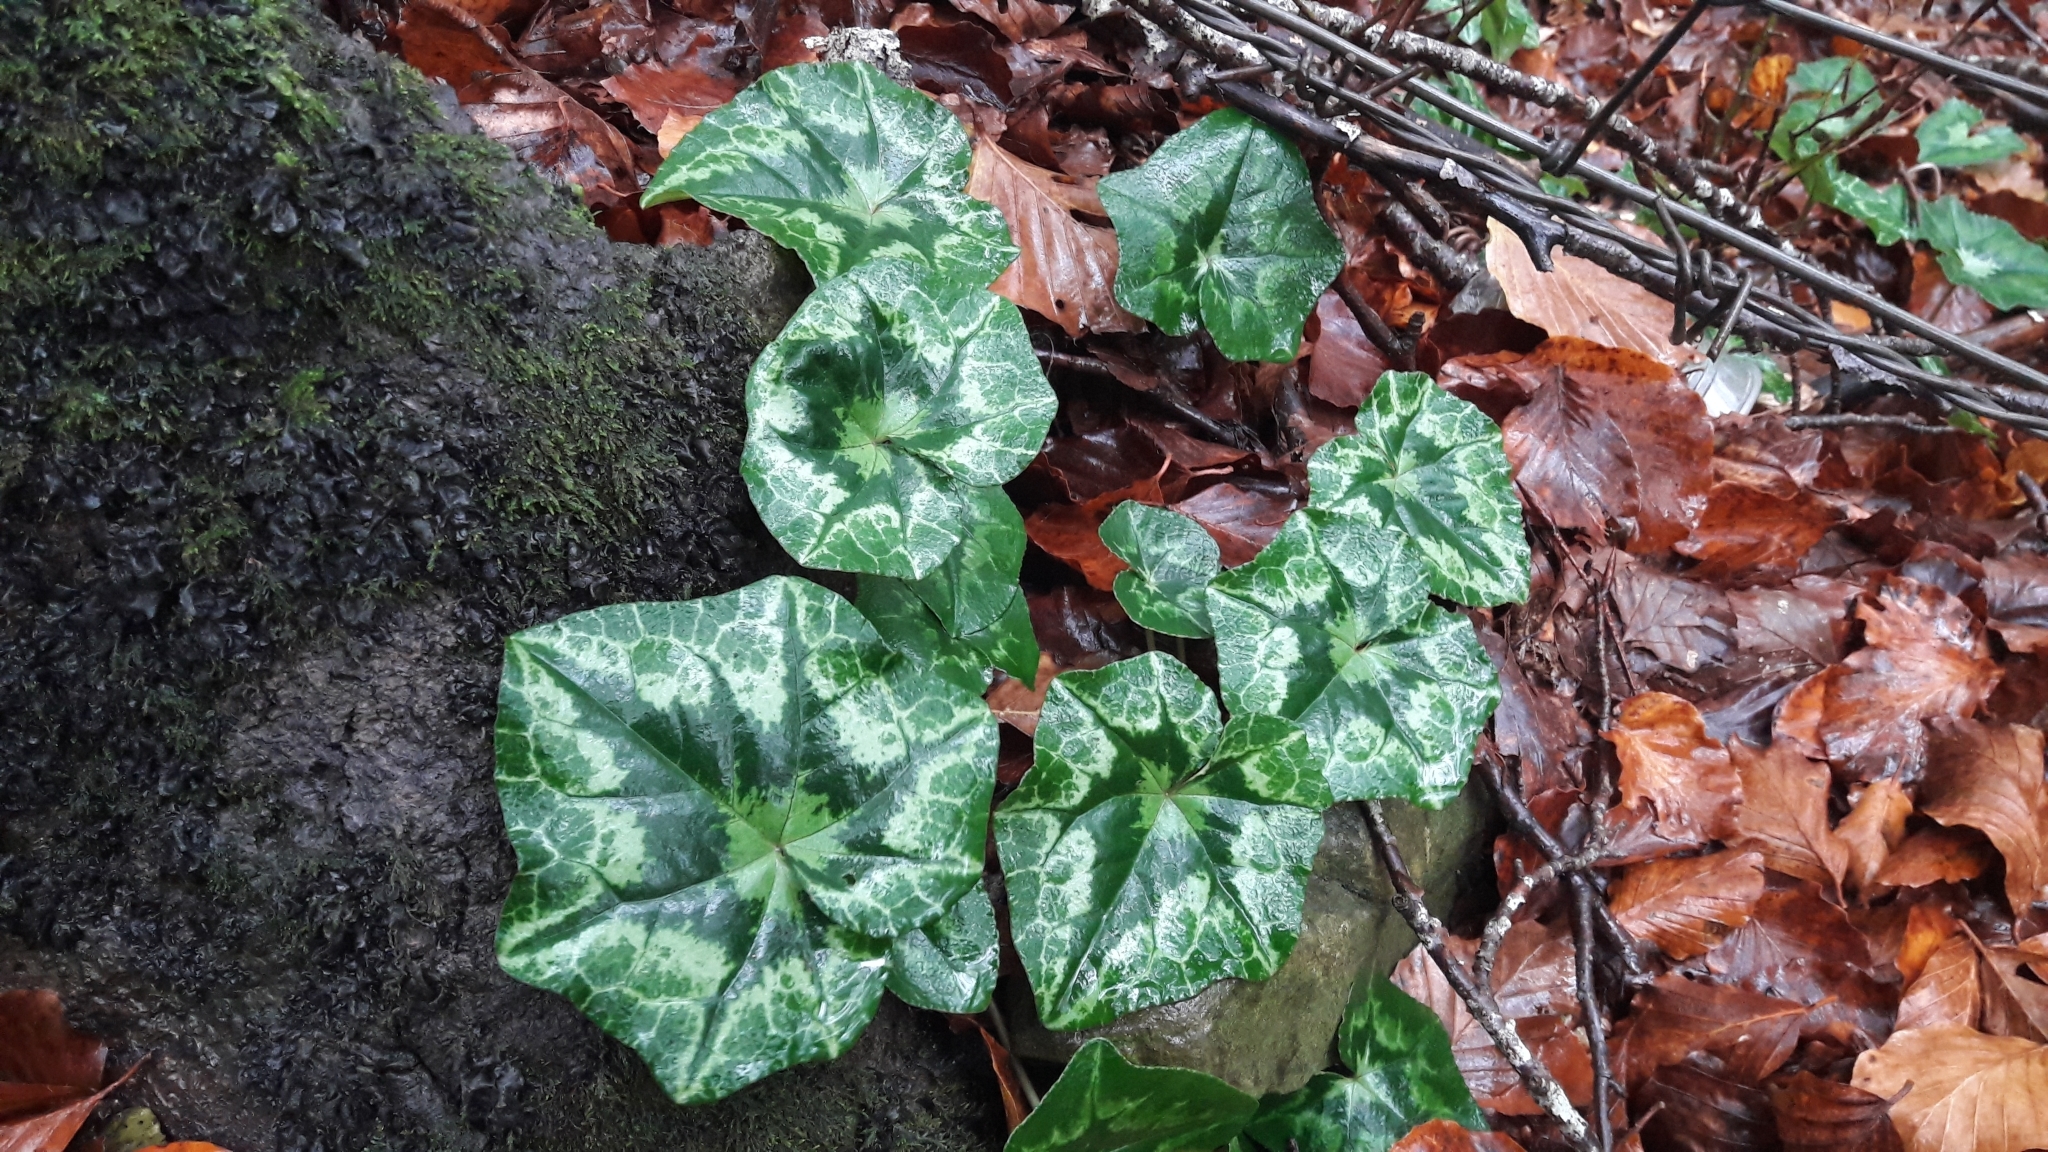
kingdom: Plantae
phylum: Tracheophyta
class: Magnoliopsida
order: Ericales
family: Primulaceae
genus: Cyclamen
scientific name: Cyclamen hederifolium
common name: Sowbread
